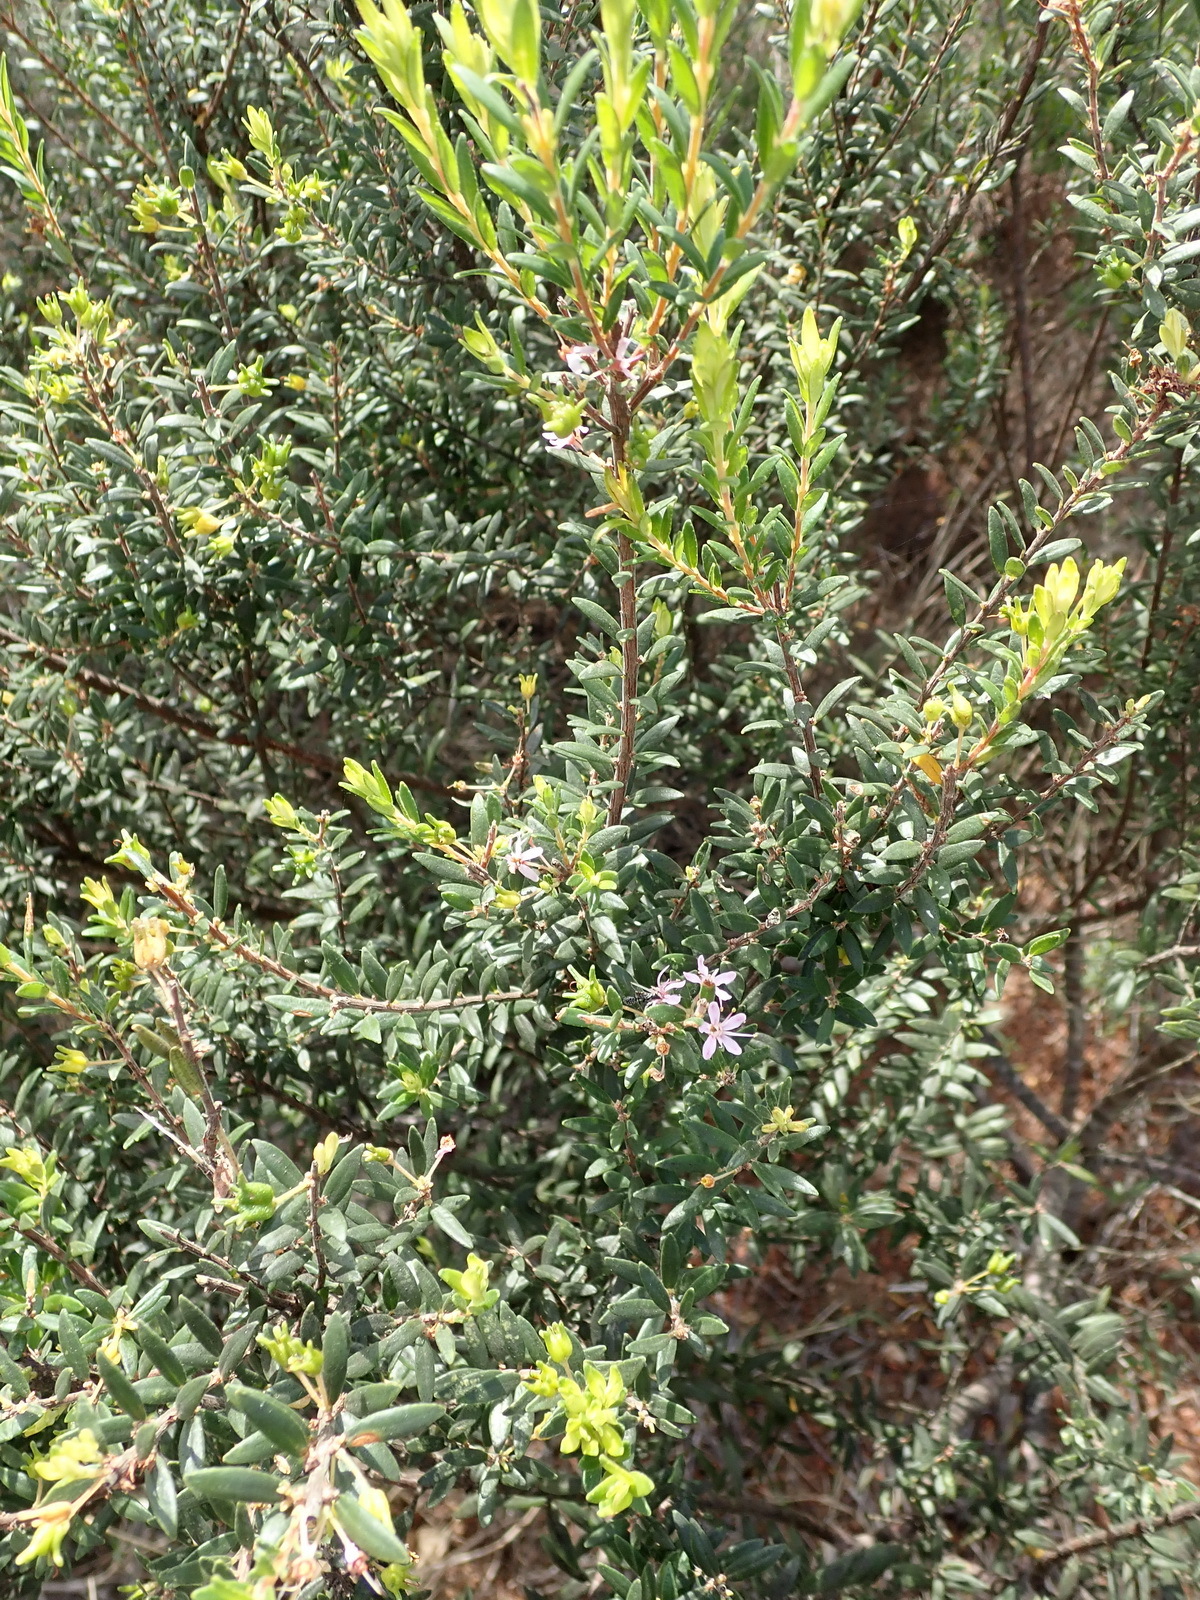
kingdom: Plantae
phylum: Tracheophyta
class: Magnoliopsida
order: Sapindales
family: Rutaceae
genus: Agathosma
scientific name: Agathosma ovata
